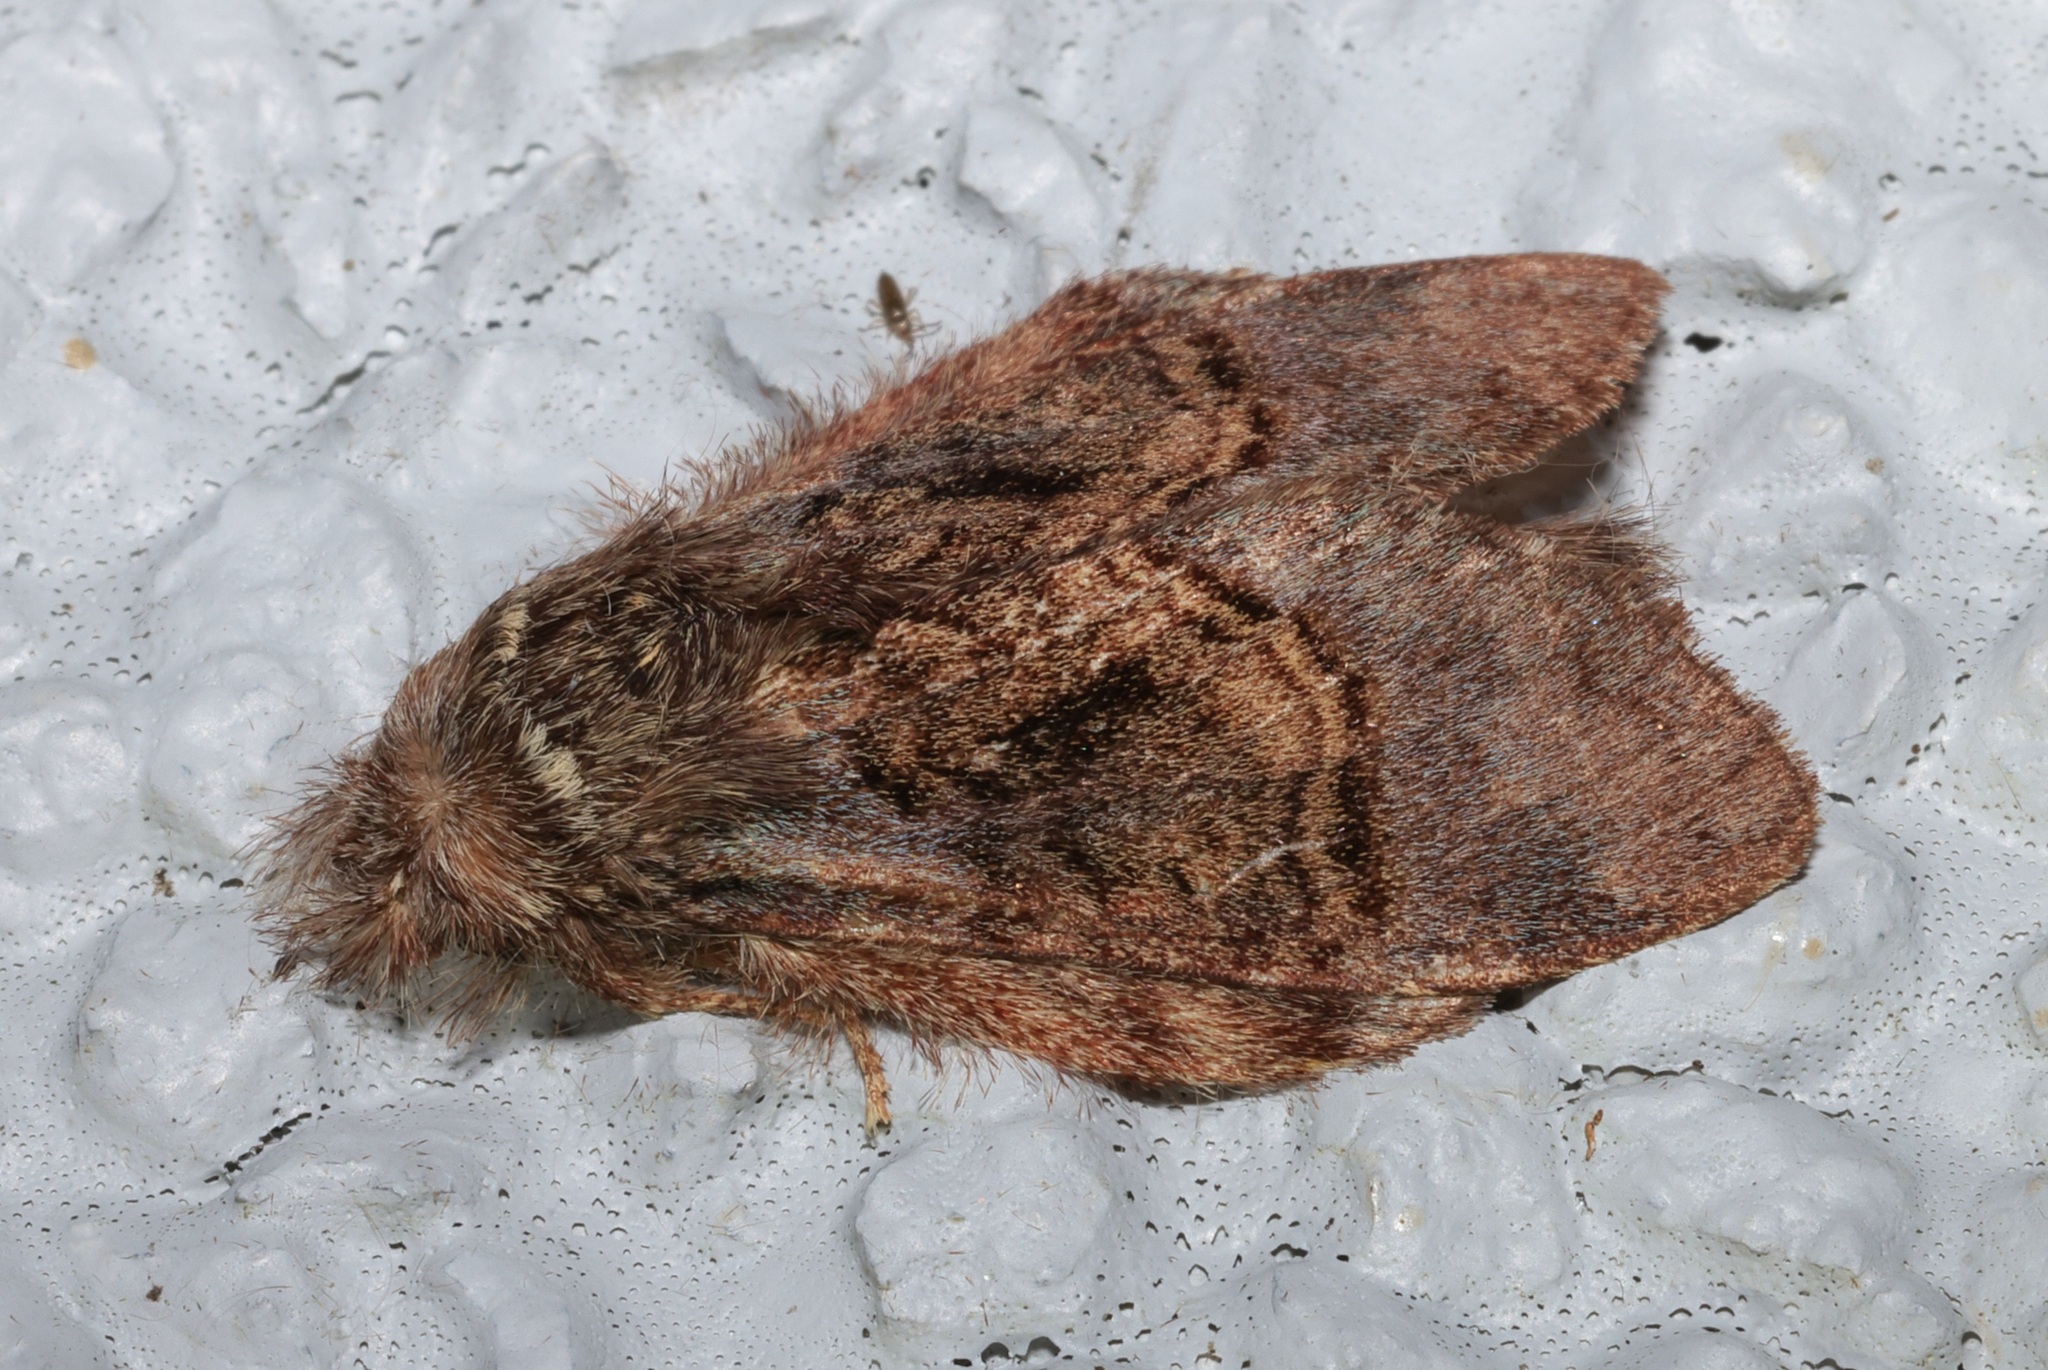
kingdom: Animalia
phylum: Arthropoda
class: Insecta
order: Lepidoptera
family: Notodontidae
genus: Syntypistis
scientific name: Syntypistis pallidifascia
